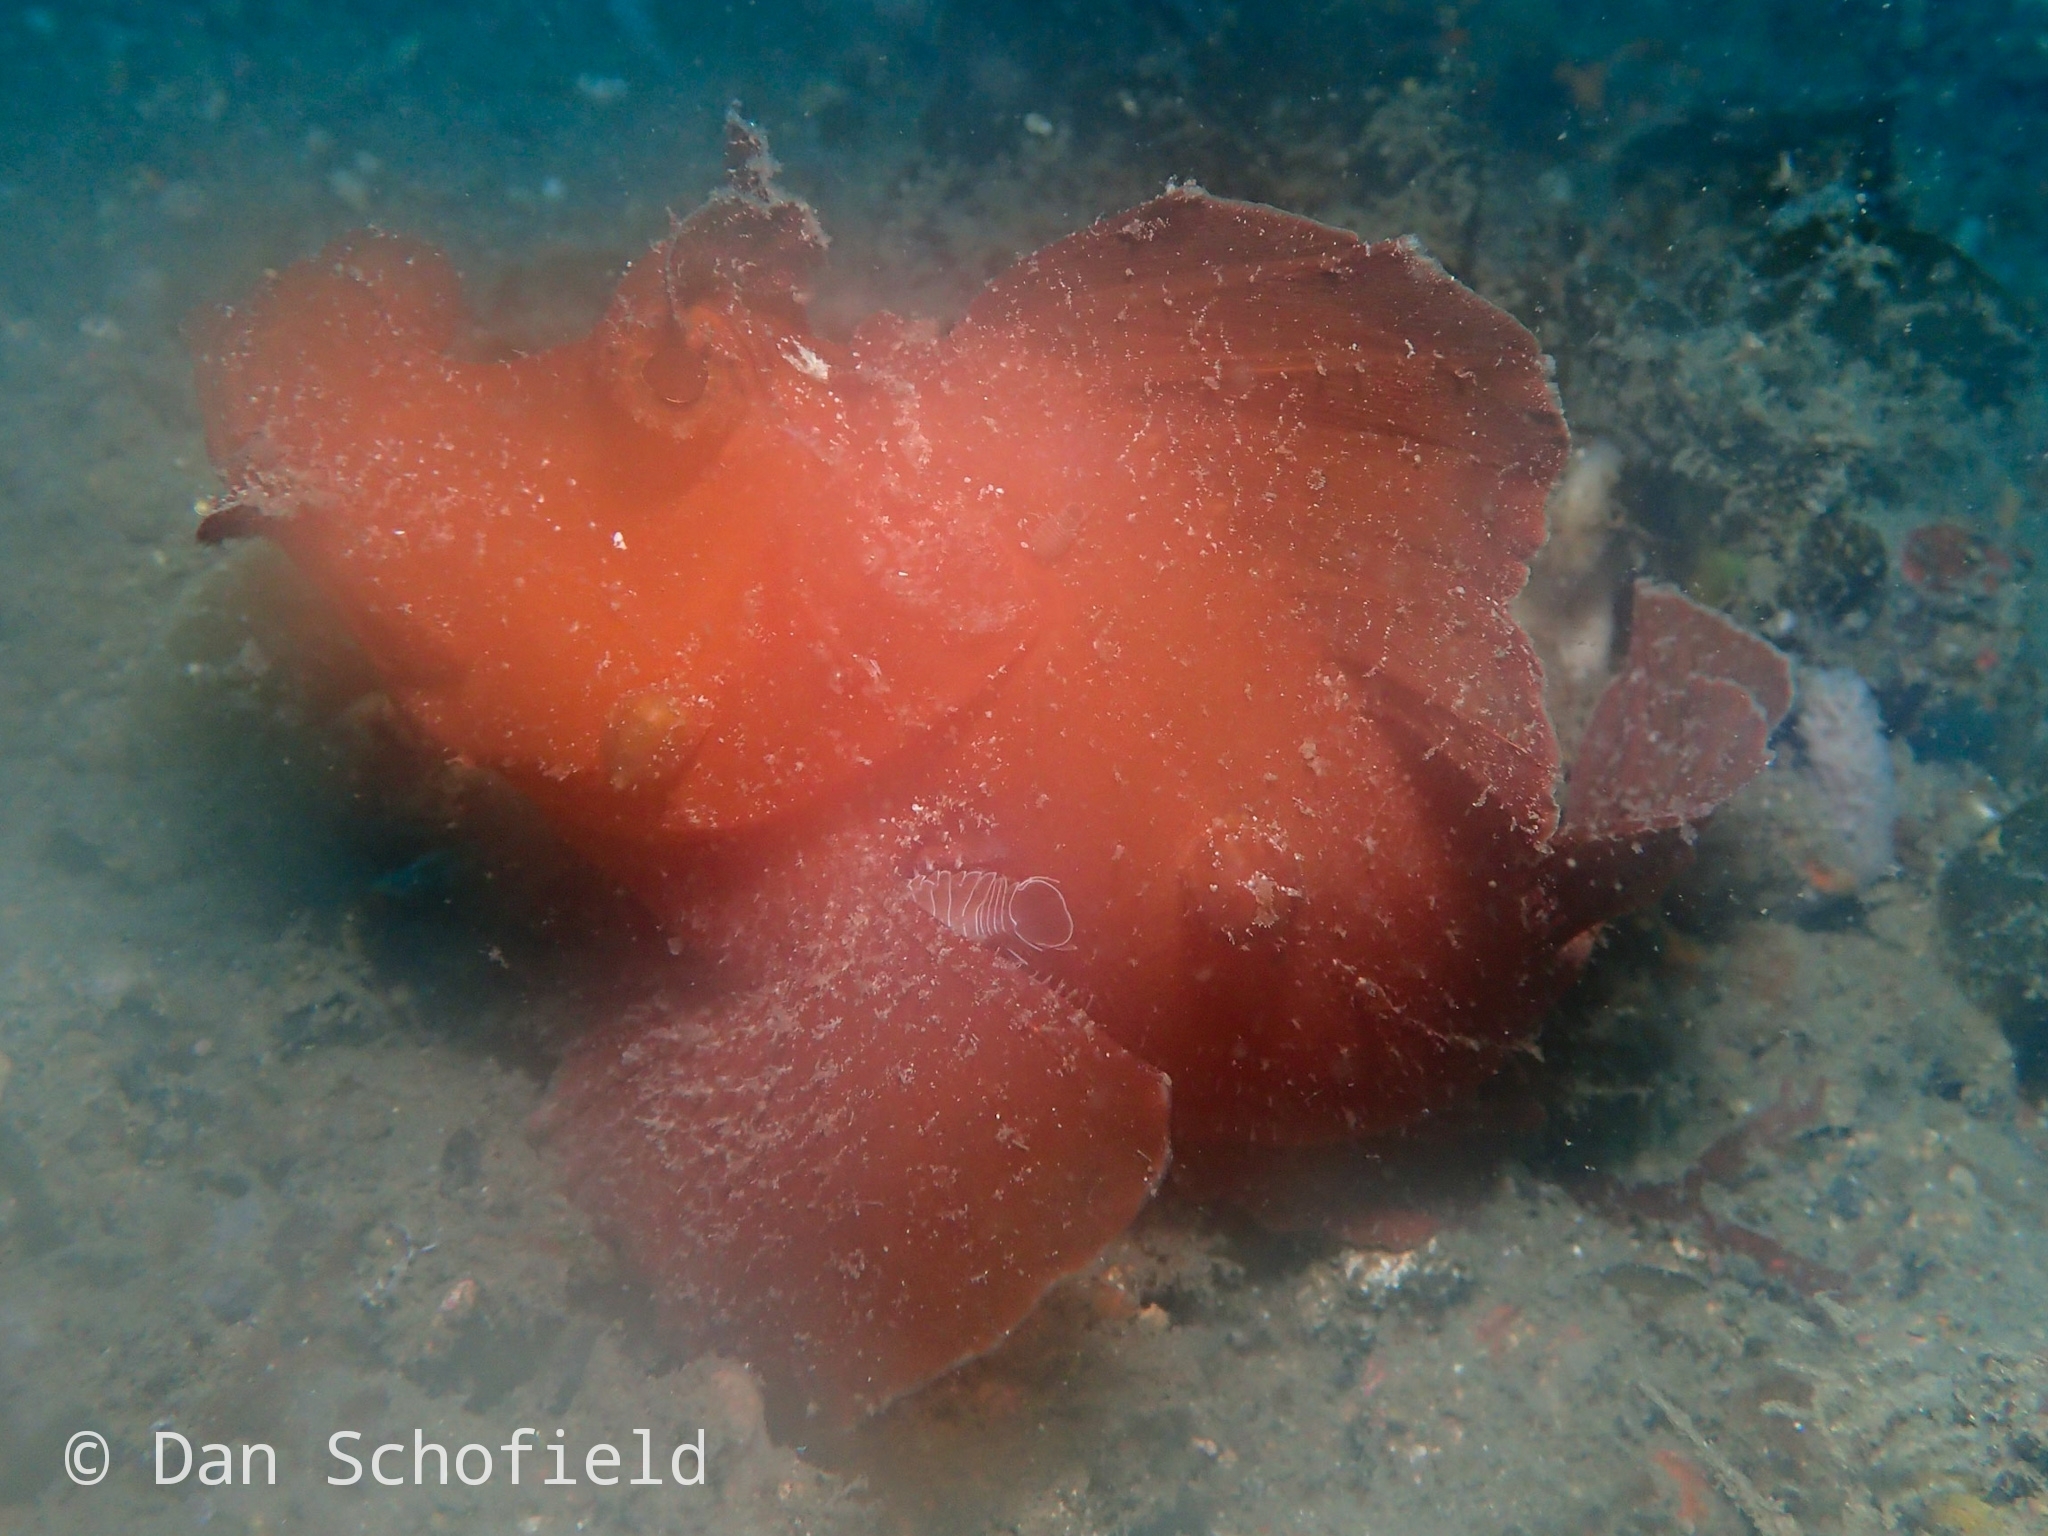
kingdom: Animalia
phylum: Chordata
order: Scorpaeniformes
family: Scorpaenidae
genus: Rhinopias
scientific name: Rhinopias eschmeyeri
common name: Eschmeyer's scorpionfish
